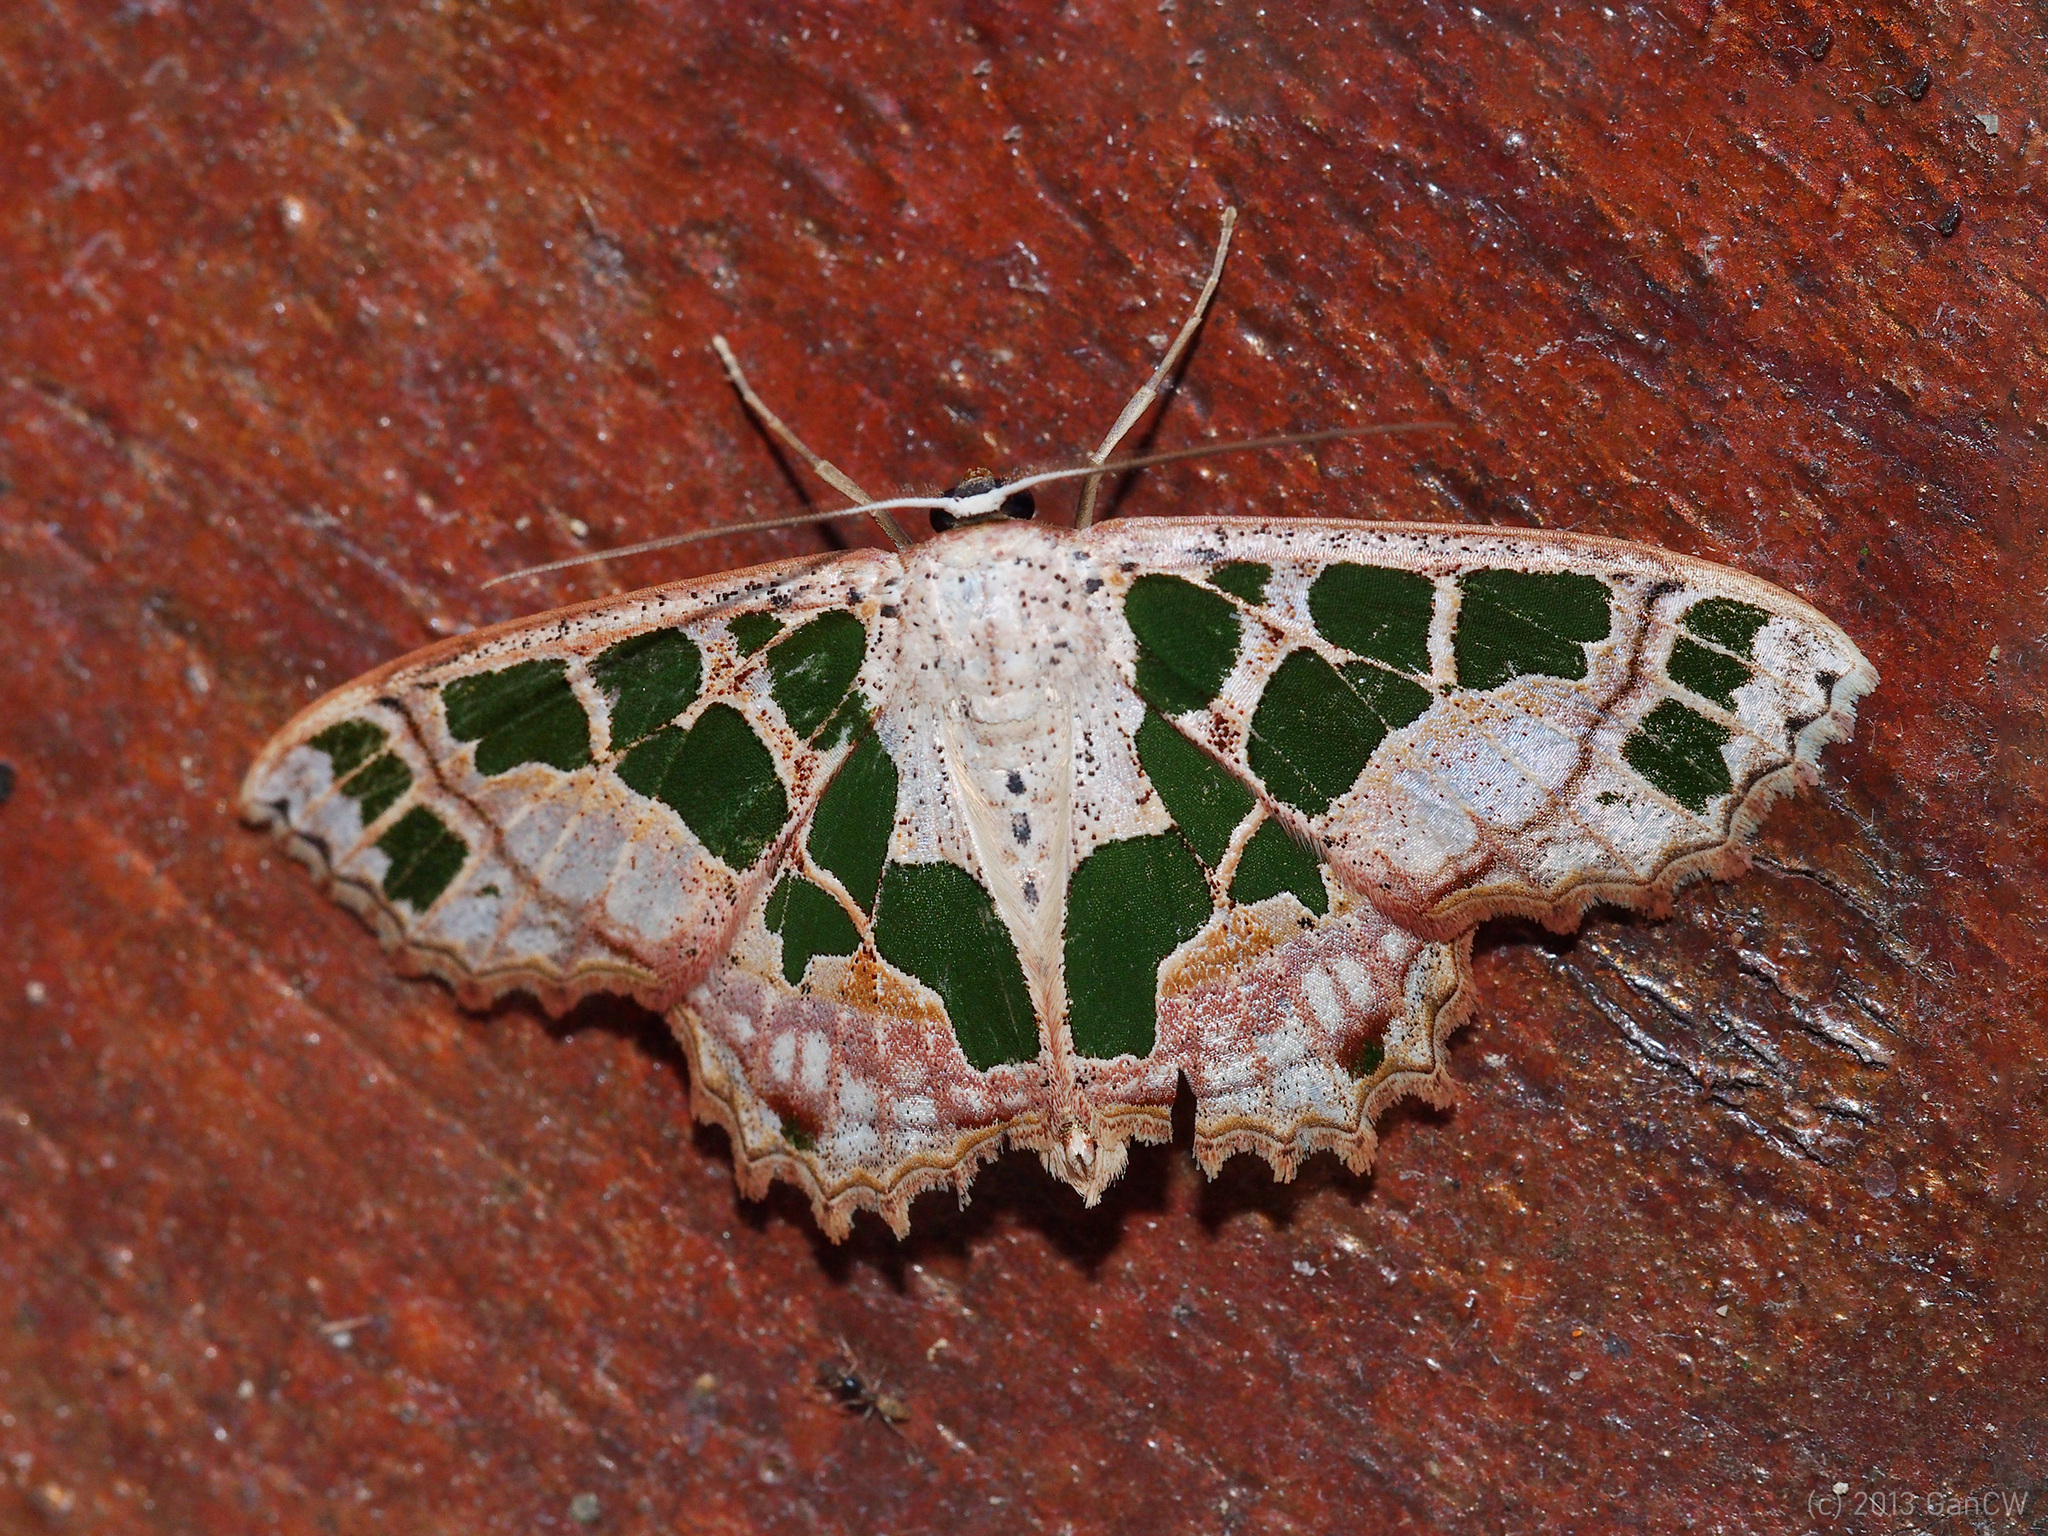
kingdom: Animalia
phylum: Arthropoda
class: Insecta
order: Lepidoptera
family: Geometridae
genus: Scopula
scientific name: Scopula divisaria
